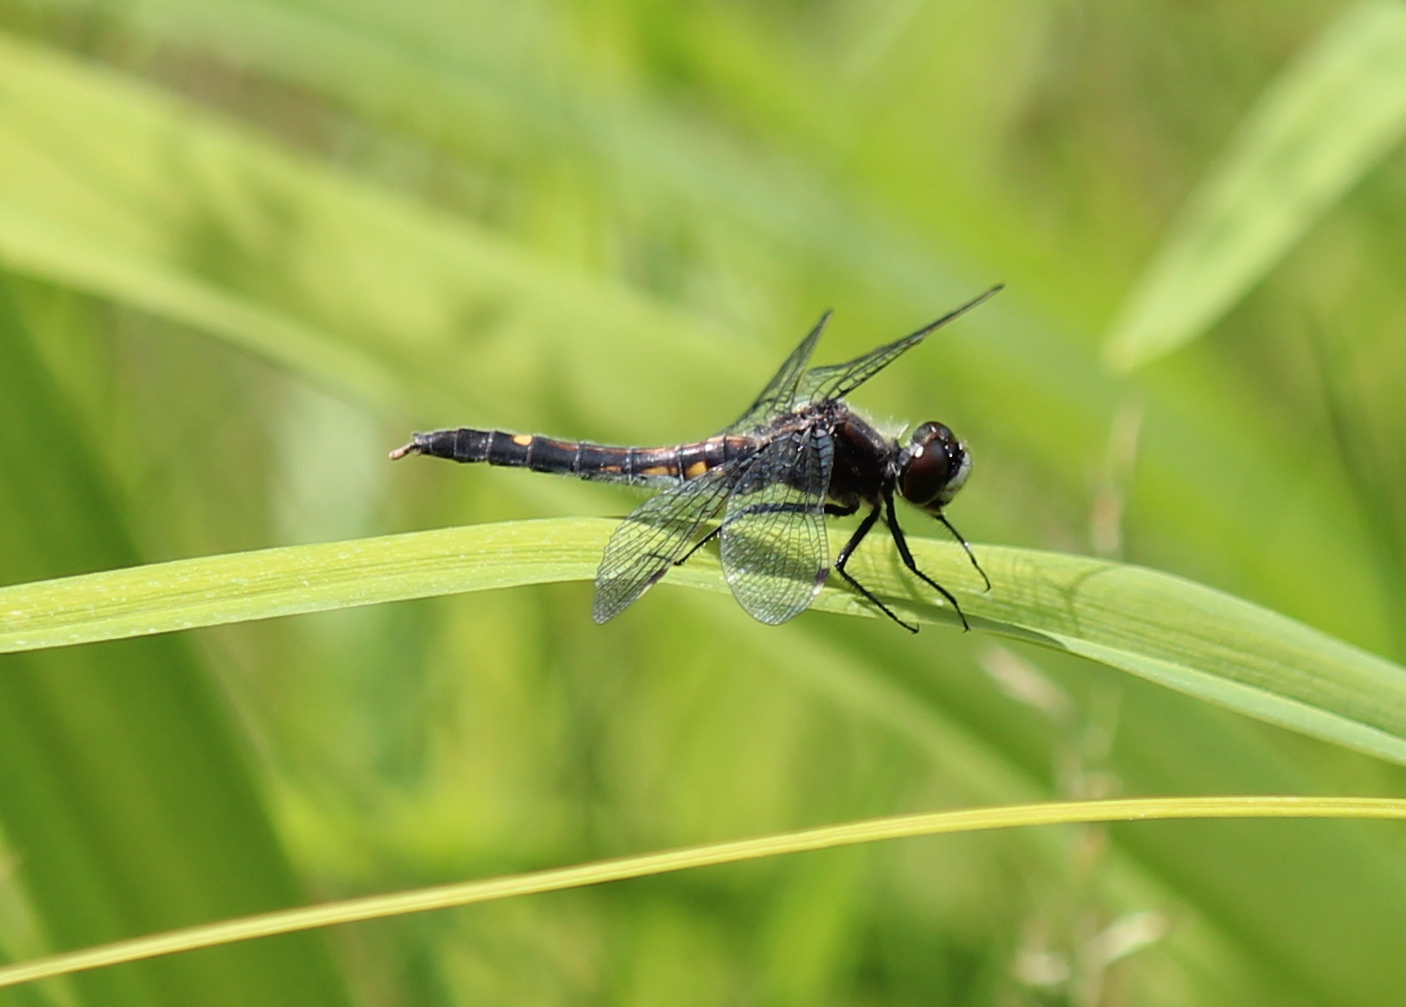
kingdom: Animalia
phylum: Arthropoda
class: Insecta
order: Odonata
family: Libellulidae
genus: Leucorrhinia
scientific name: Leucorrhinia intacta
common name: Dot-tailed whiteface
